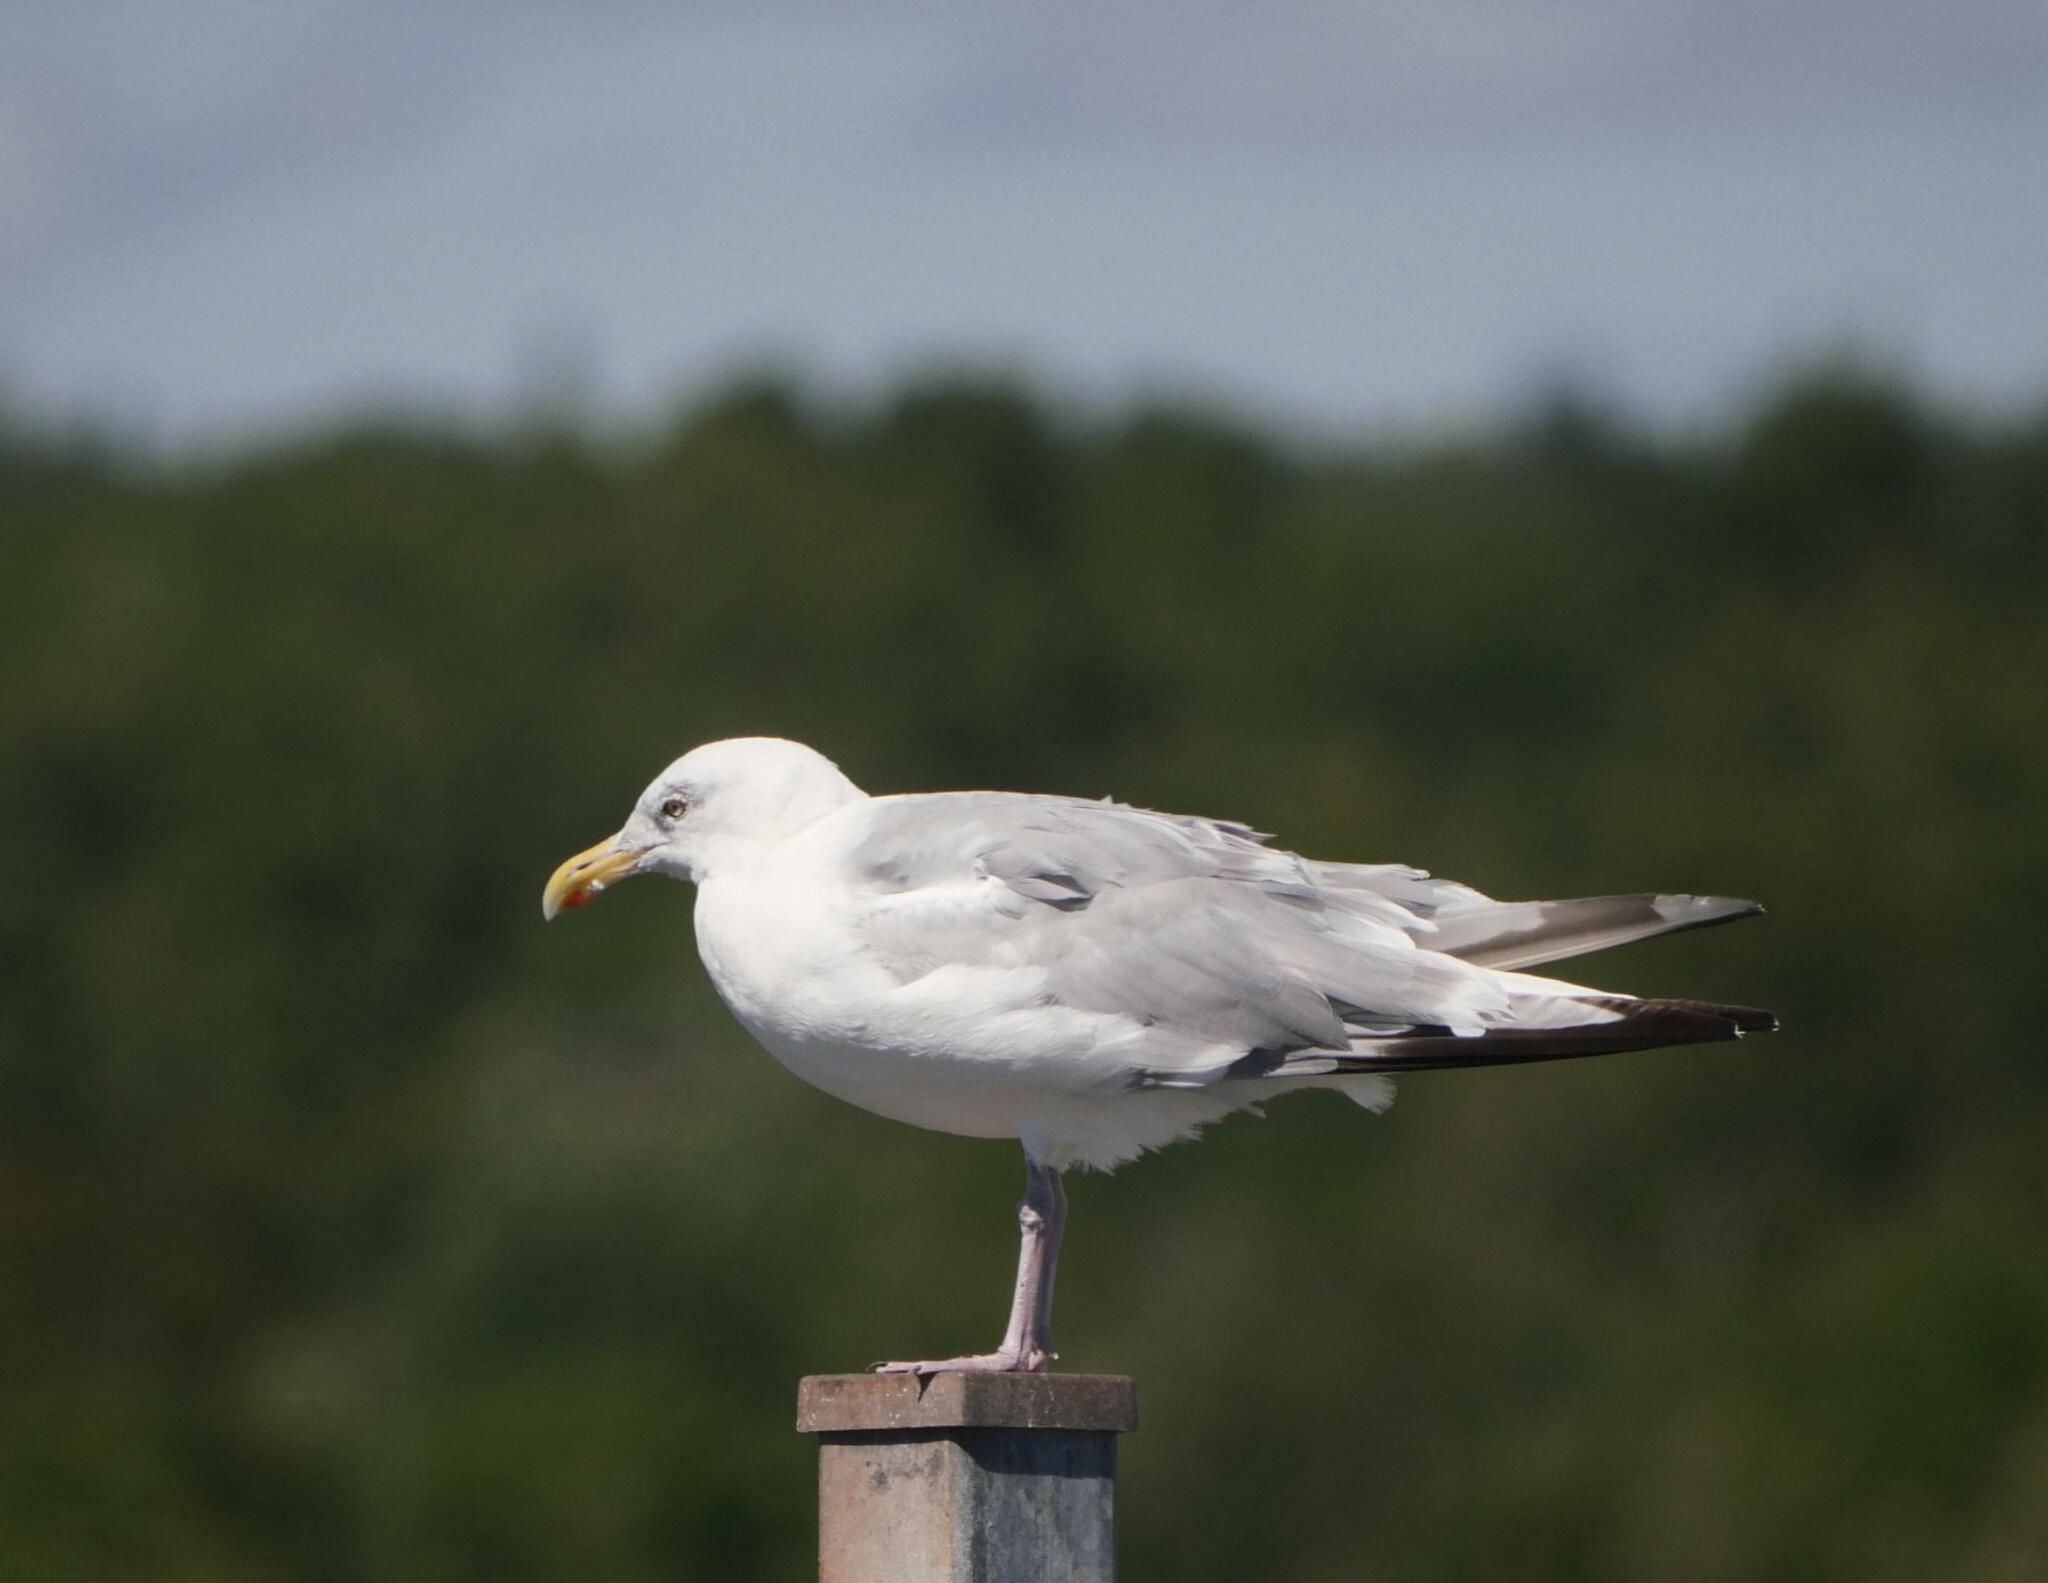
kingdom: Animalia
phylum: Chordata
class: Aves
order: Charadriiformes
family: Laridae
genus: Larus
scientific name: Larus argentatus
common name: Herring gull
